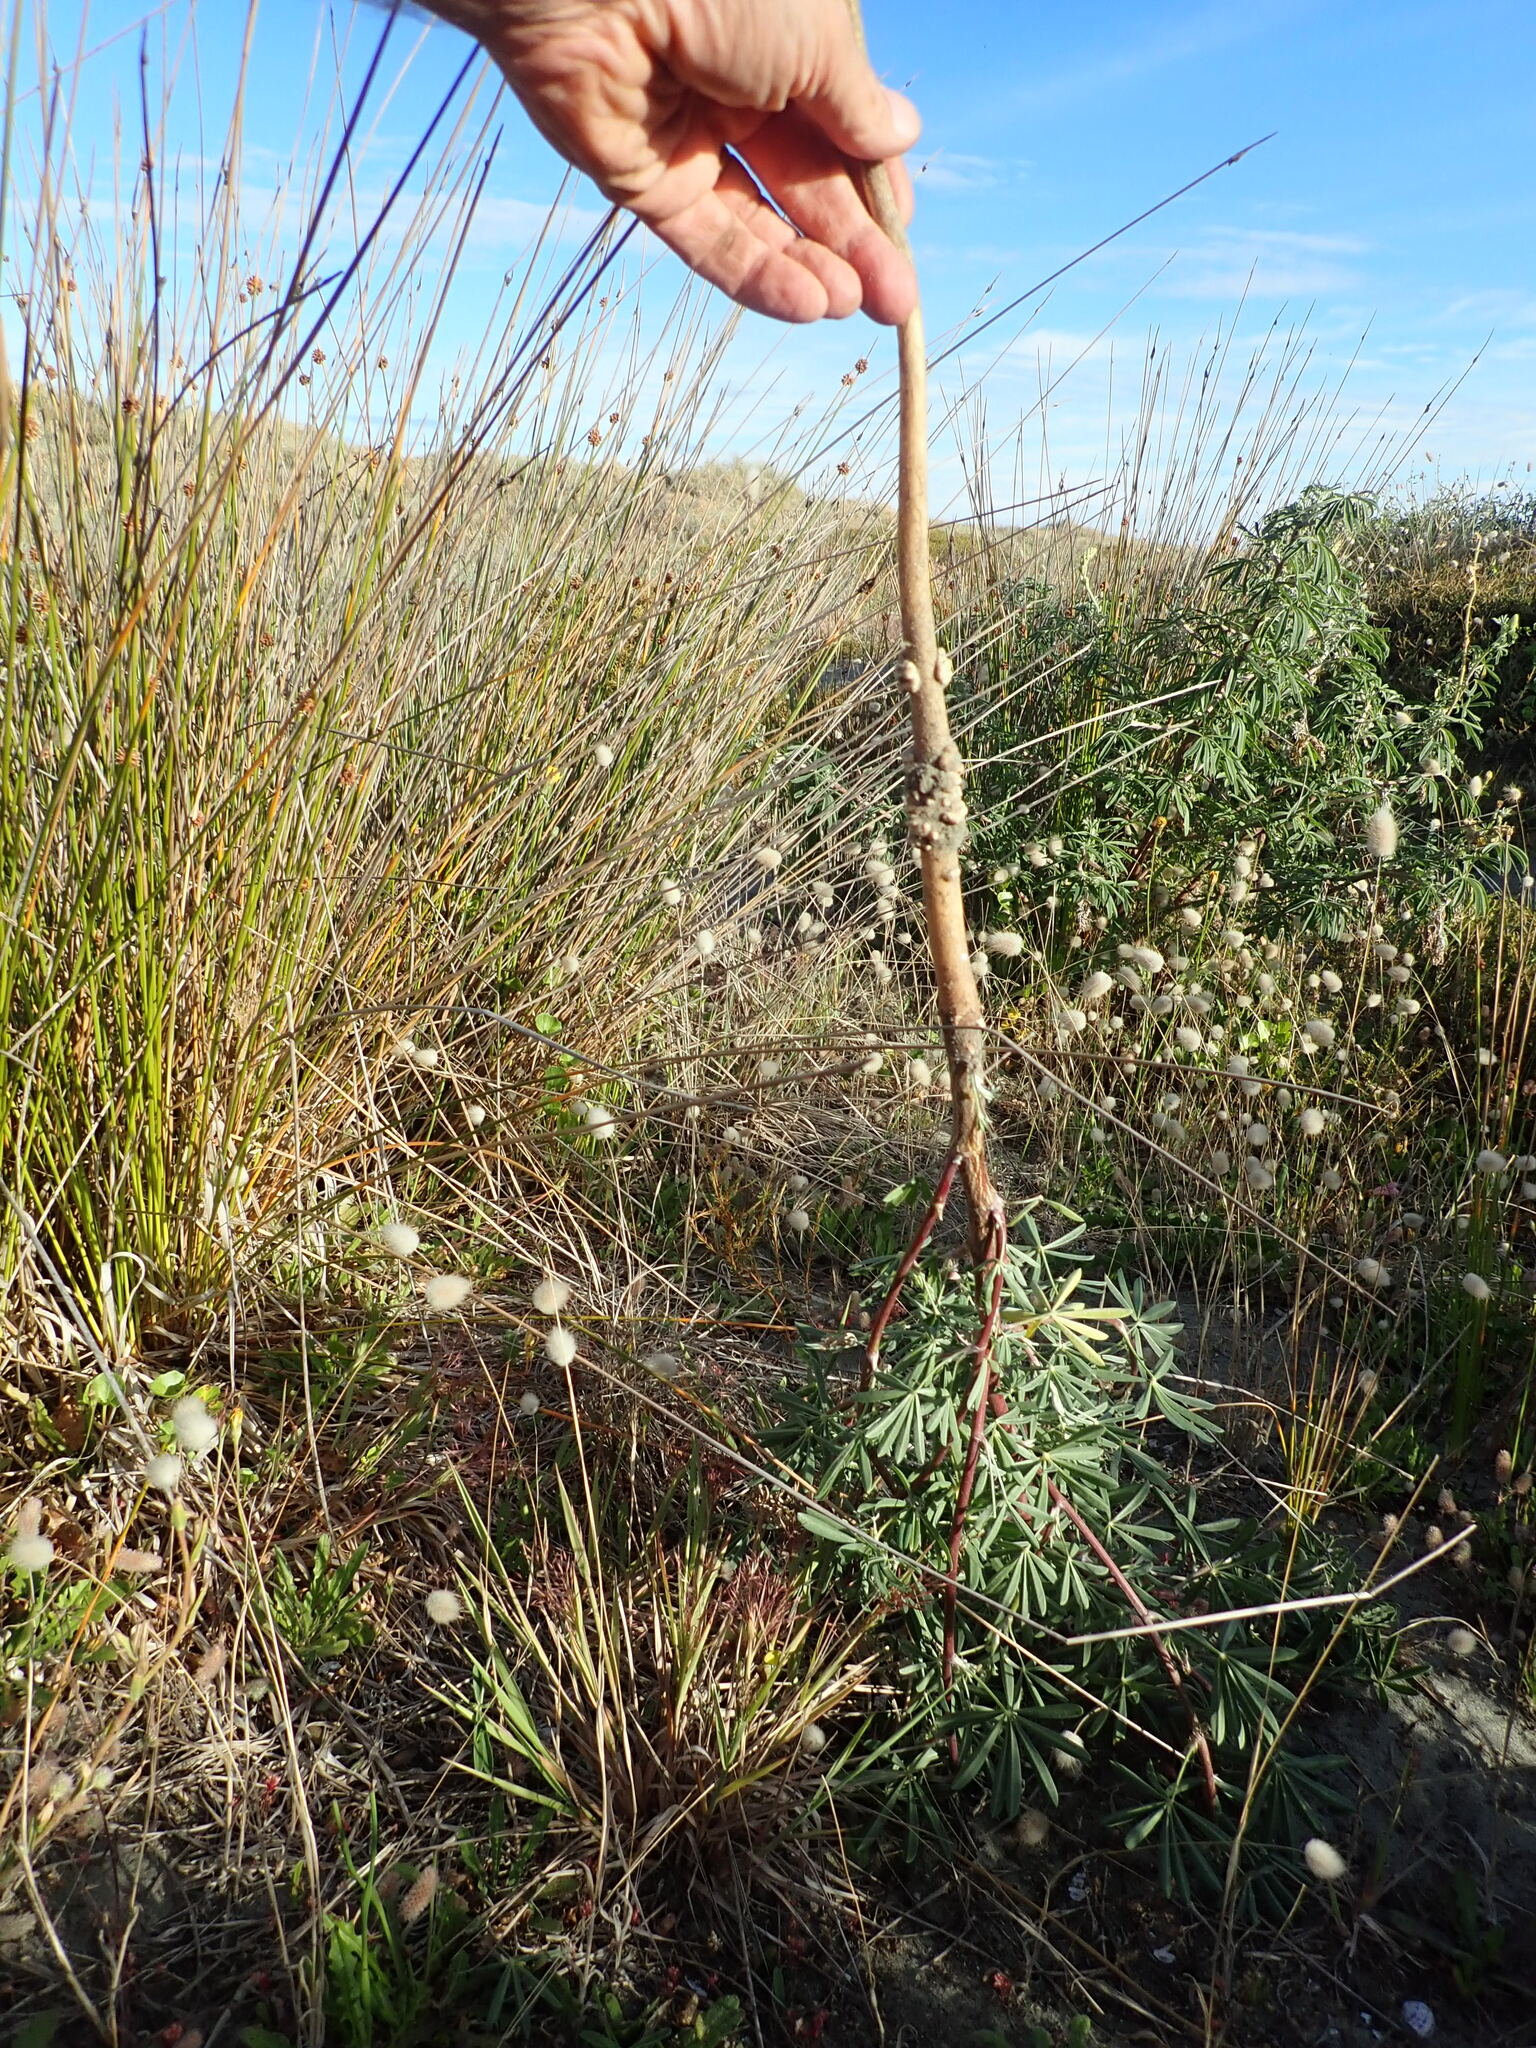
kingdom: Plantae
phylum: Tracheophyta
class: Magnoliopsida
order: Fabales
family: Fabaceae
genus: Lupinus
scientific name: Lupinus arboreus
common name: Yellow bush lupine
